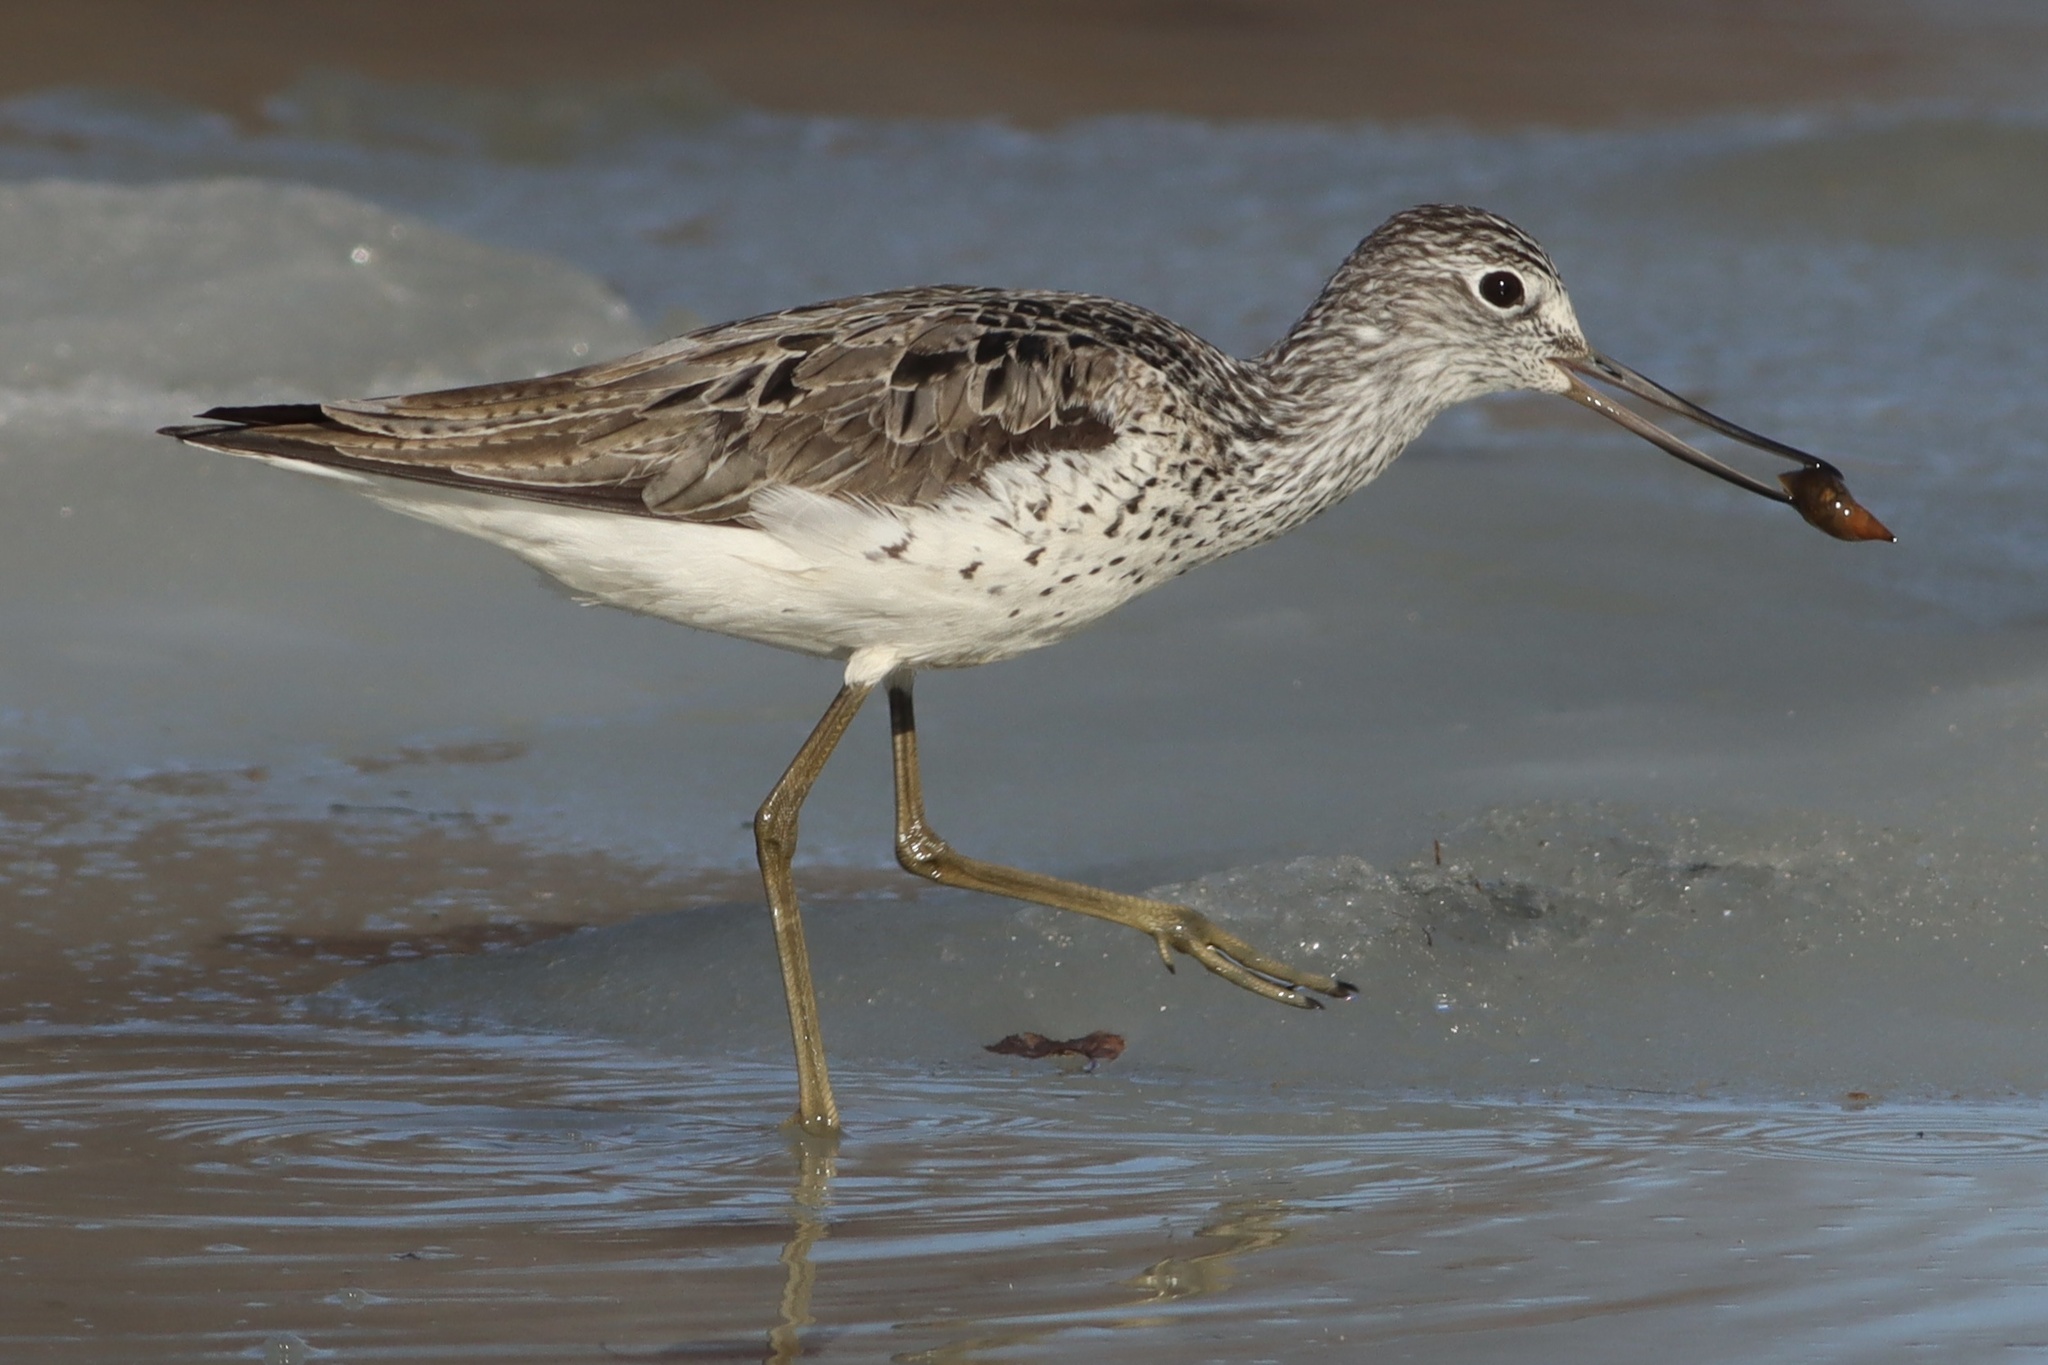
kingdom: Animalia
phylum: Chordata
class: Aves
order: Charadriiformes
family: Scolopacidae
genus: Tringa
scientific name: Tringa nebularia
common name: Common greenshank
